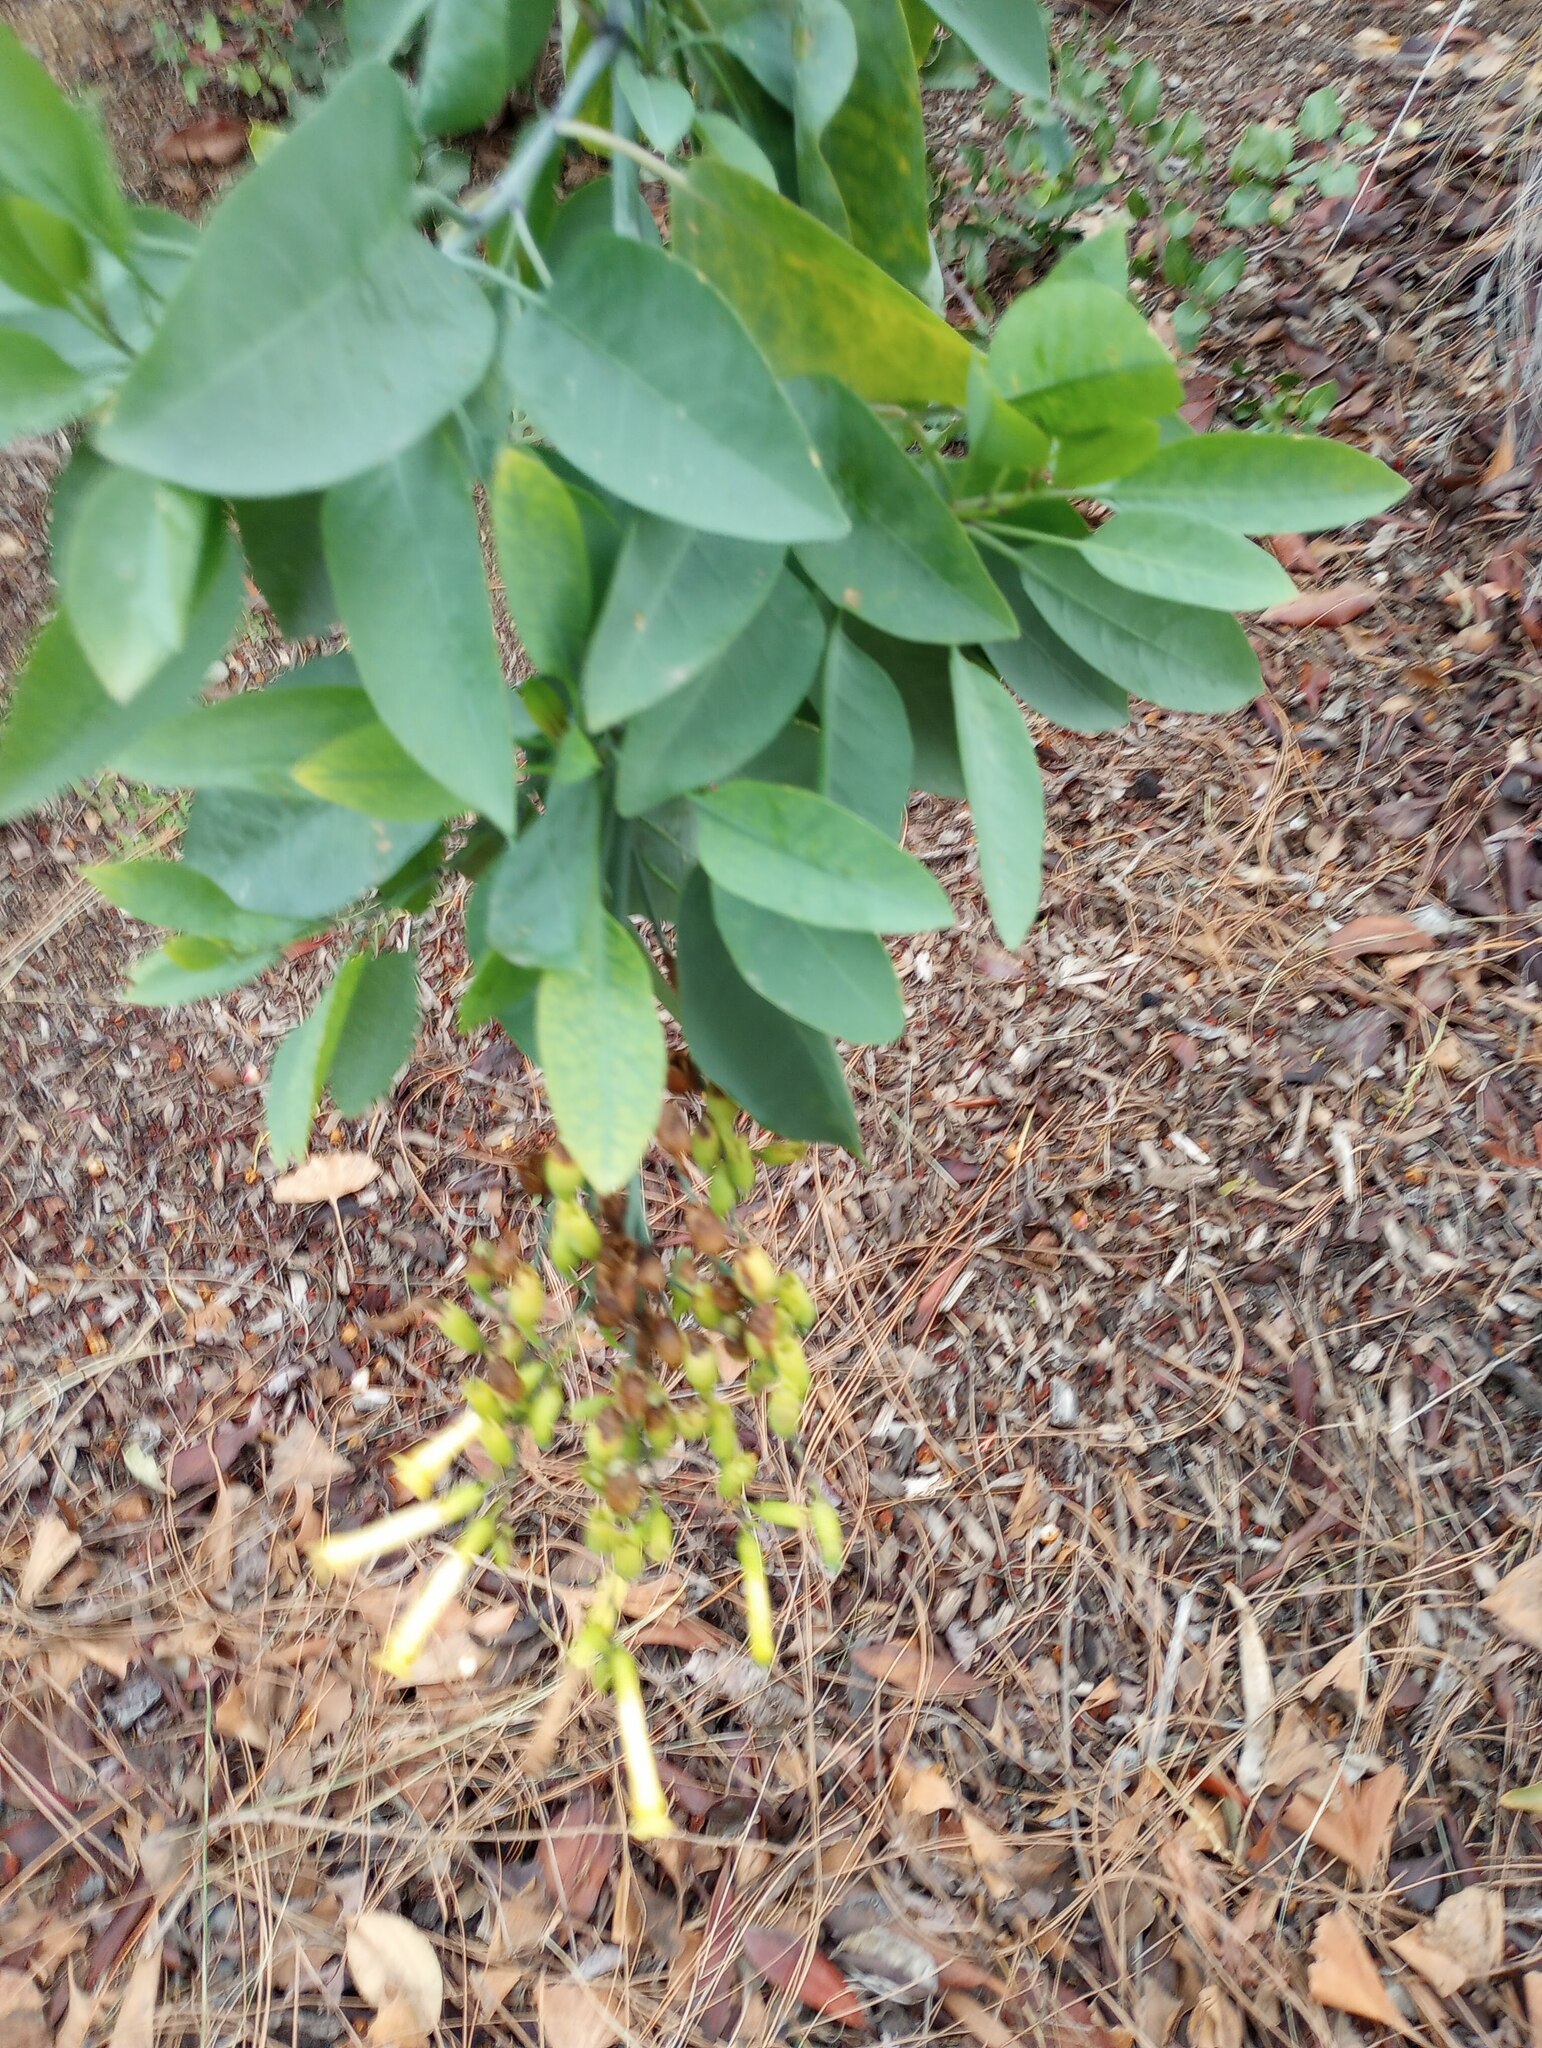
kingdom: Plantae
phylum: Tracheophyta
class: Magnoliopsida
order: Solanales
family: Solanaceae
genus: Nicotiana
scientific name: Nicotiana glauca
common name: Tree tobacco
